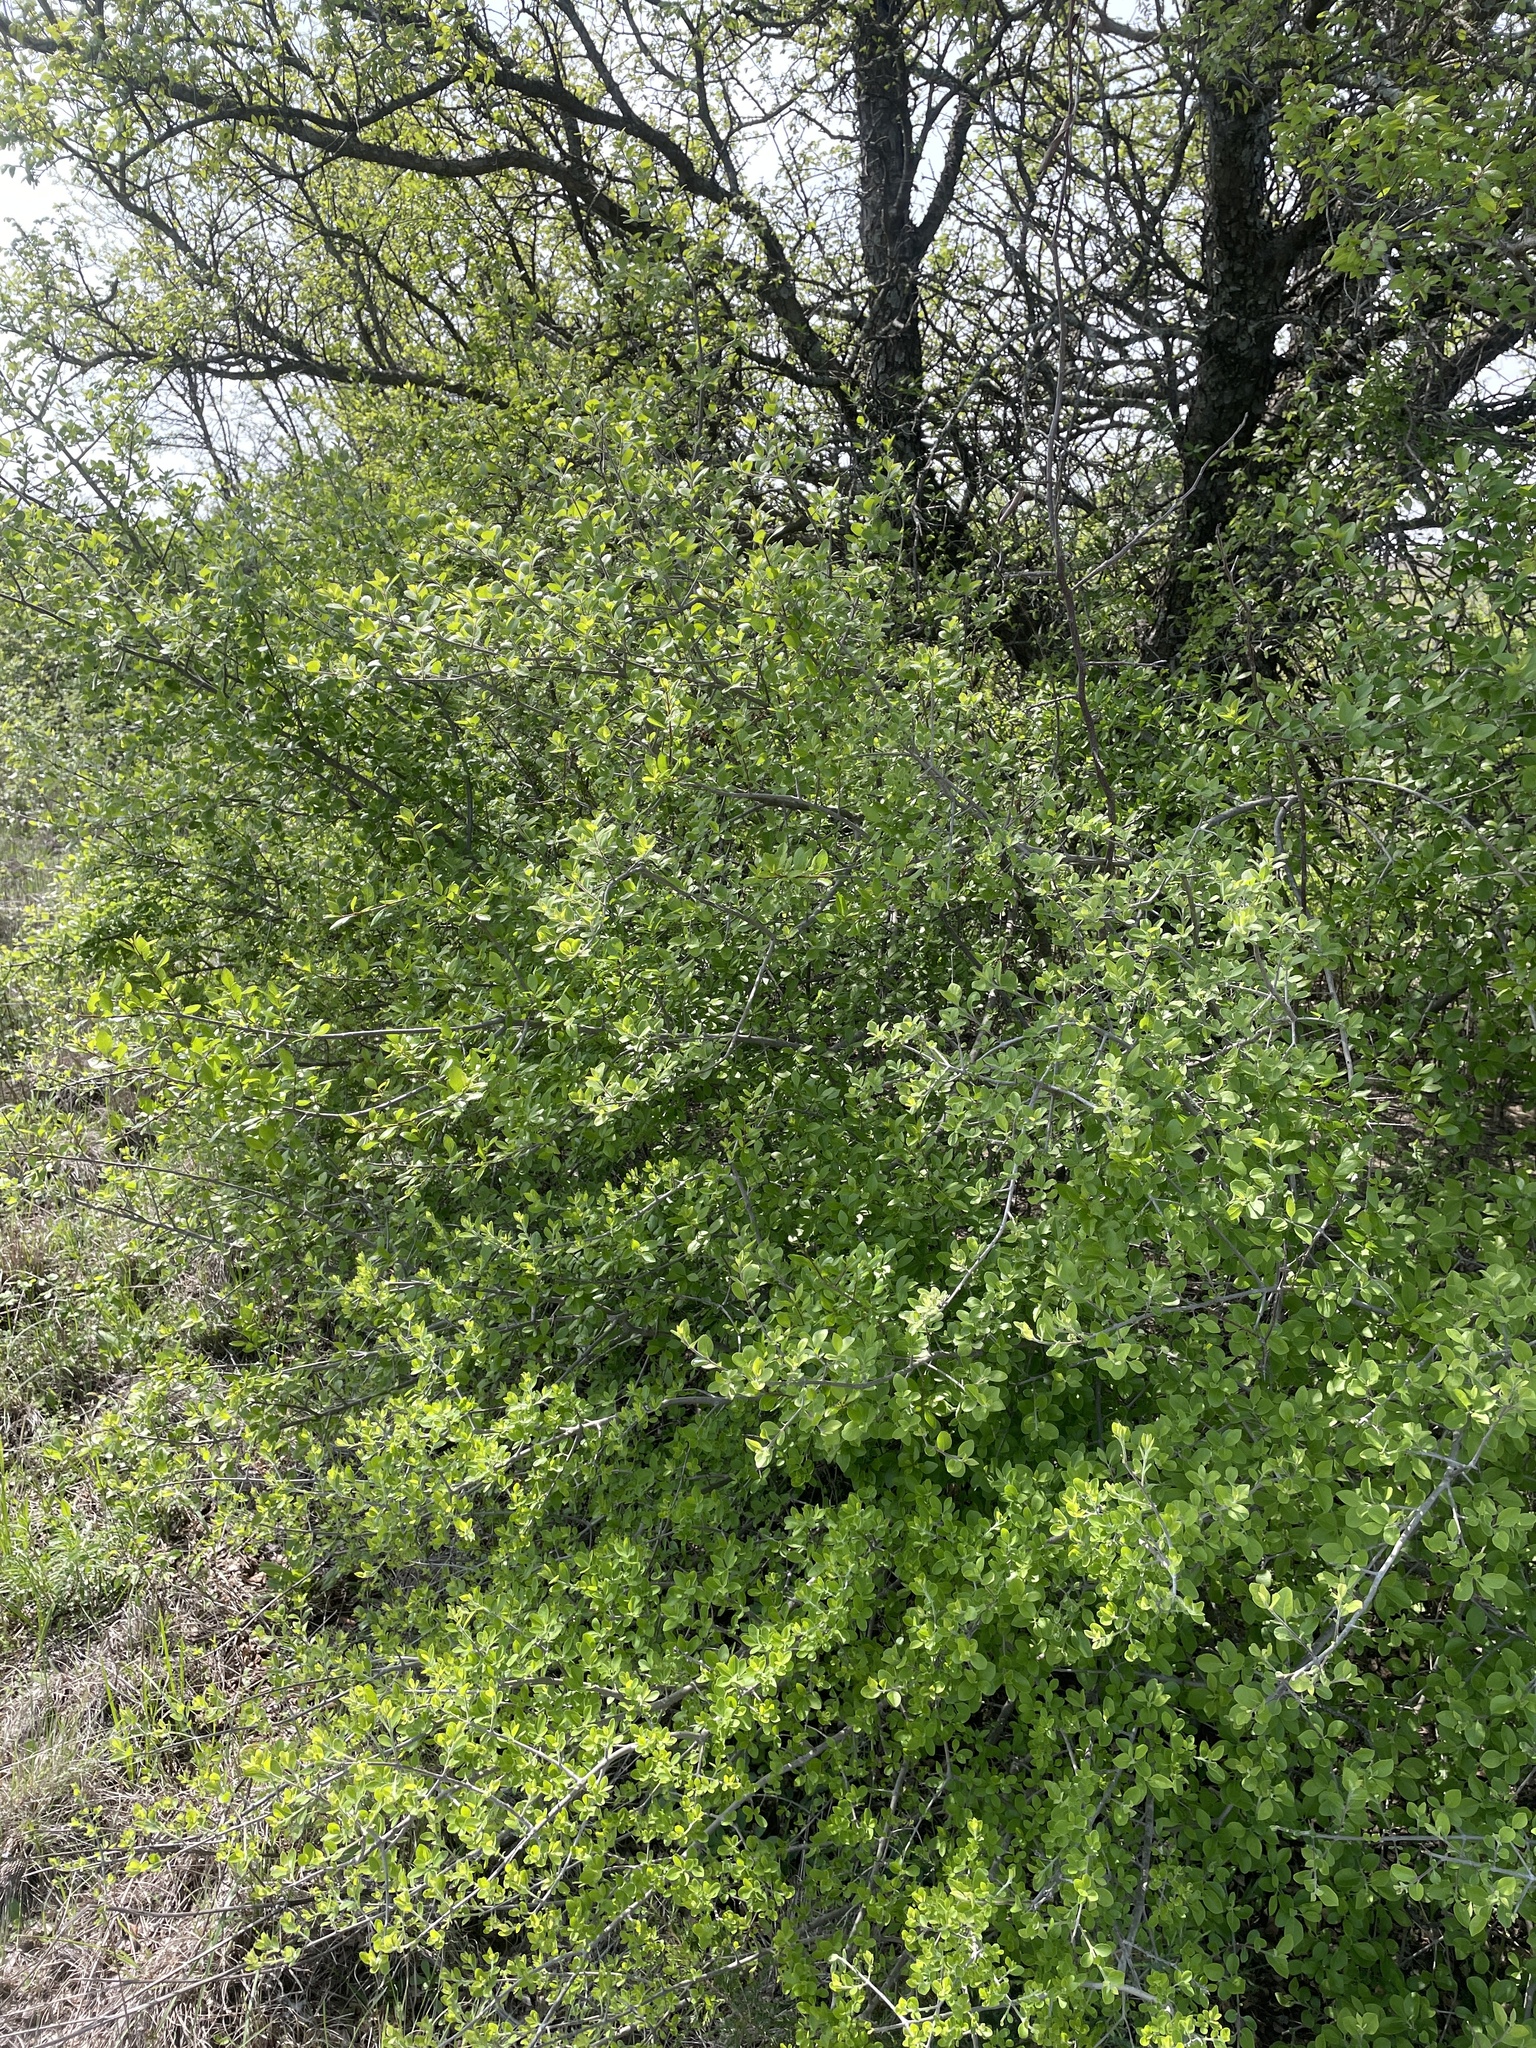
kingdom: Plantae
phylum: Tracheophyta
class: Magnoliopsida
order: Lamiales
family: Oleaceae
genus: Forestiera
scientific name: Forestiera pubescens
